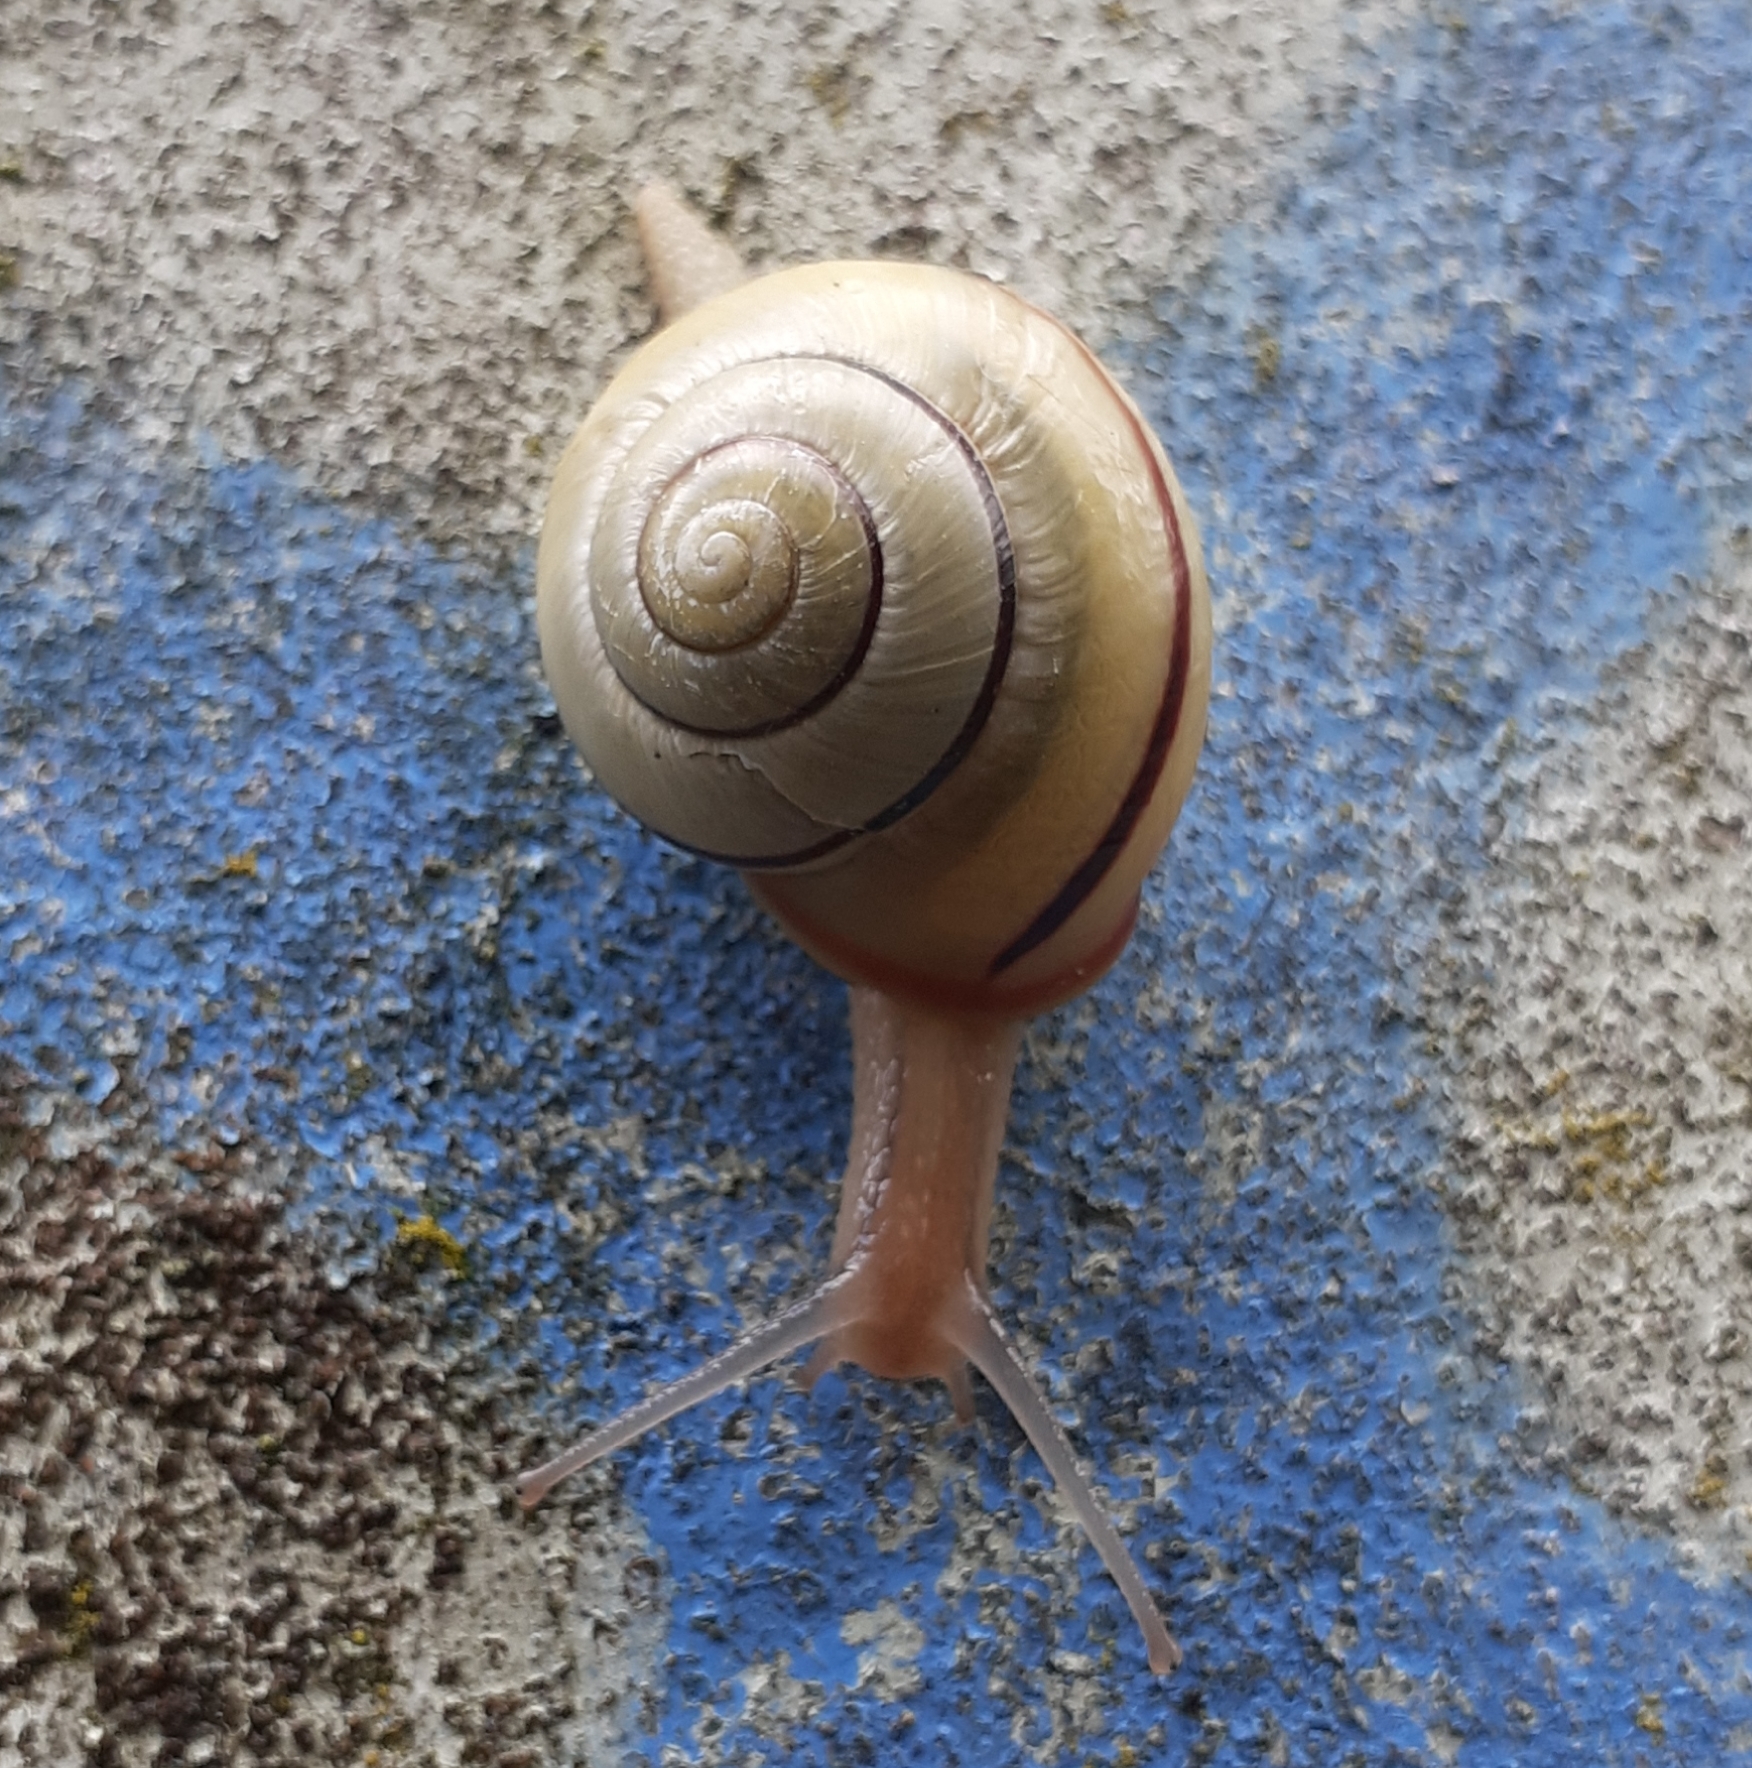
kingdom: Animalia
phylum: Mollusca
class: Gastropoda
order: Stylommatophora
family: Helicidae
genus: Cepaea
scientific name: Cepaea nemoralis
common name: Grovesnail
